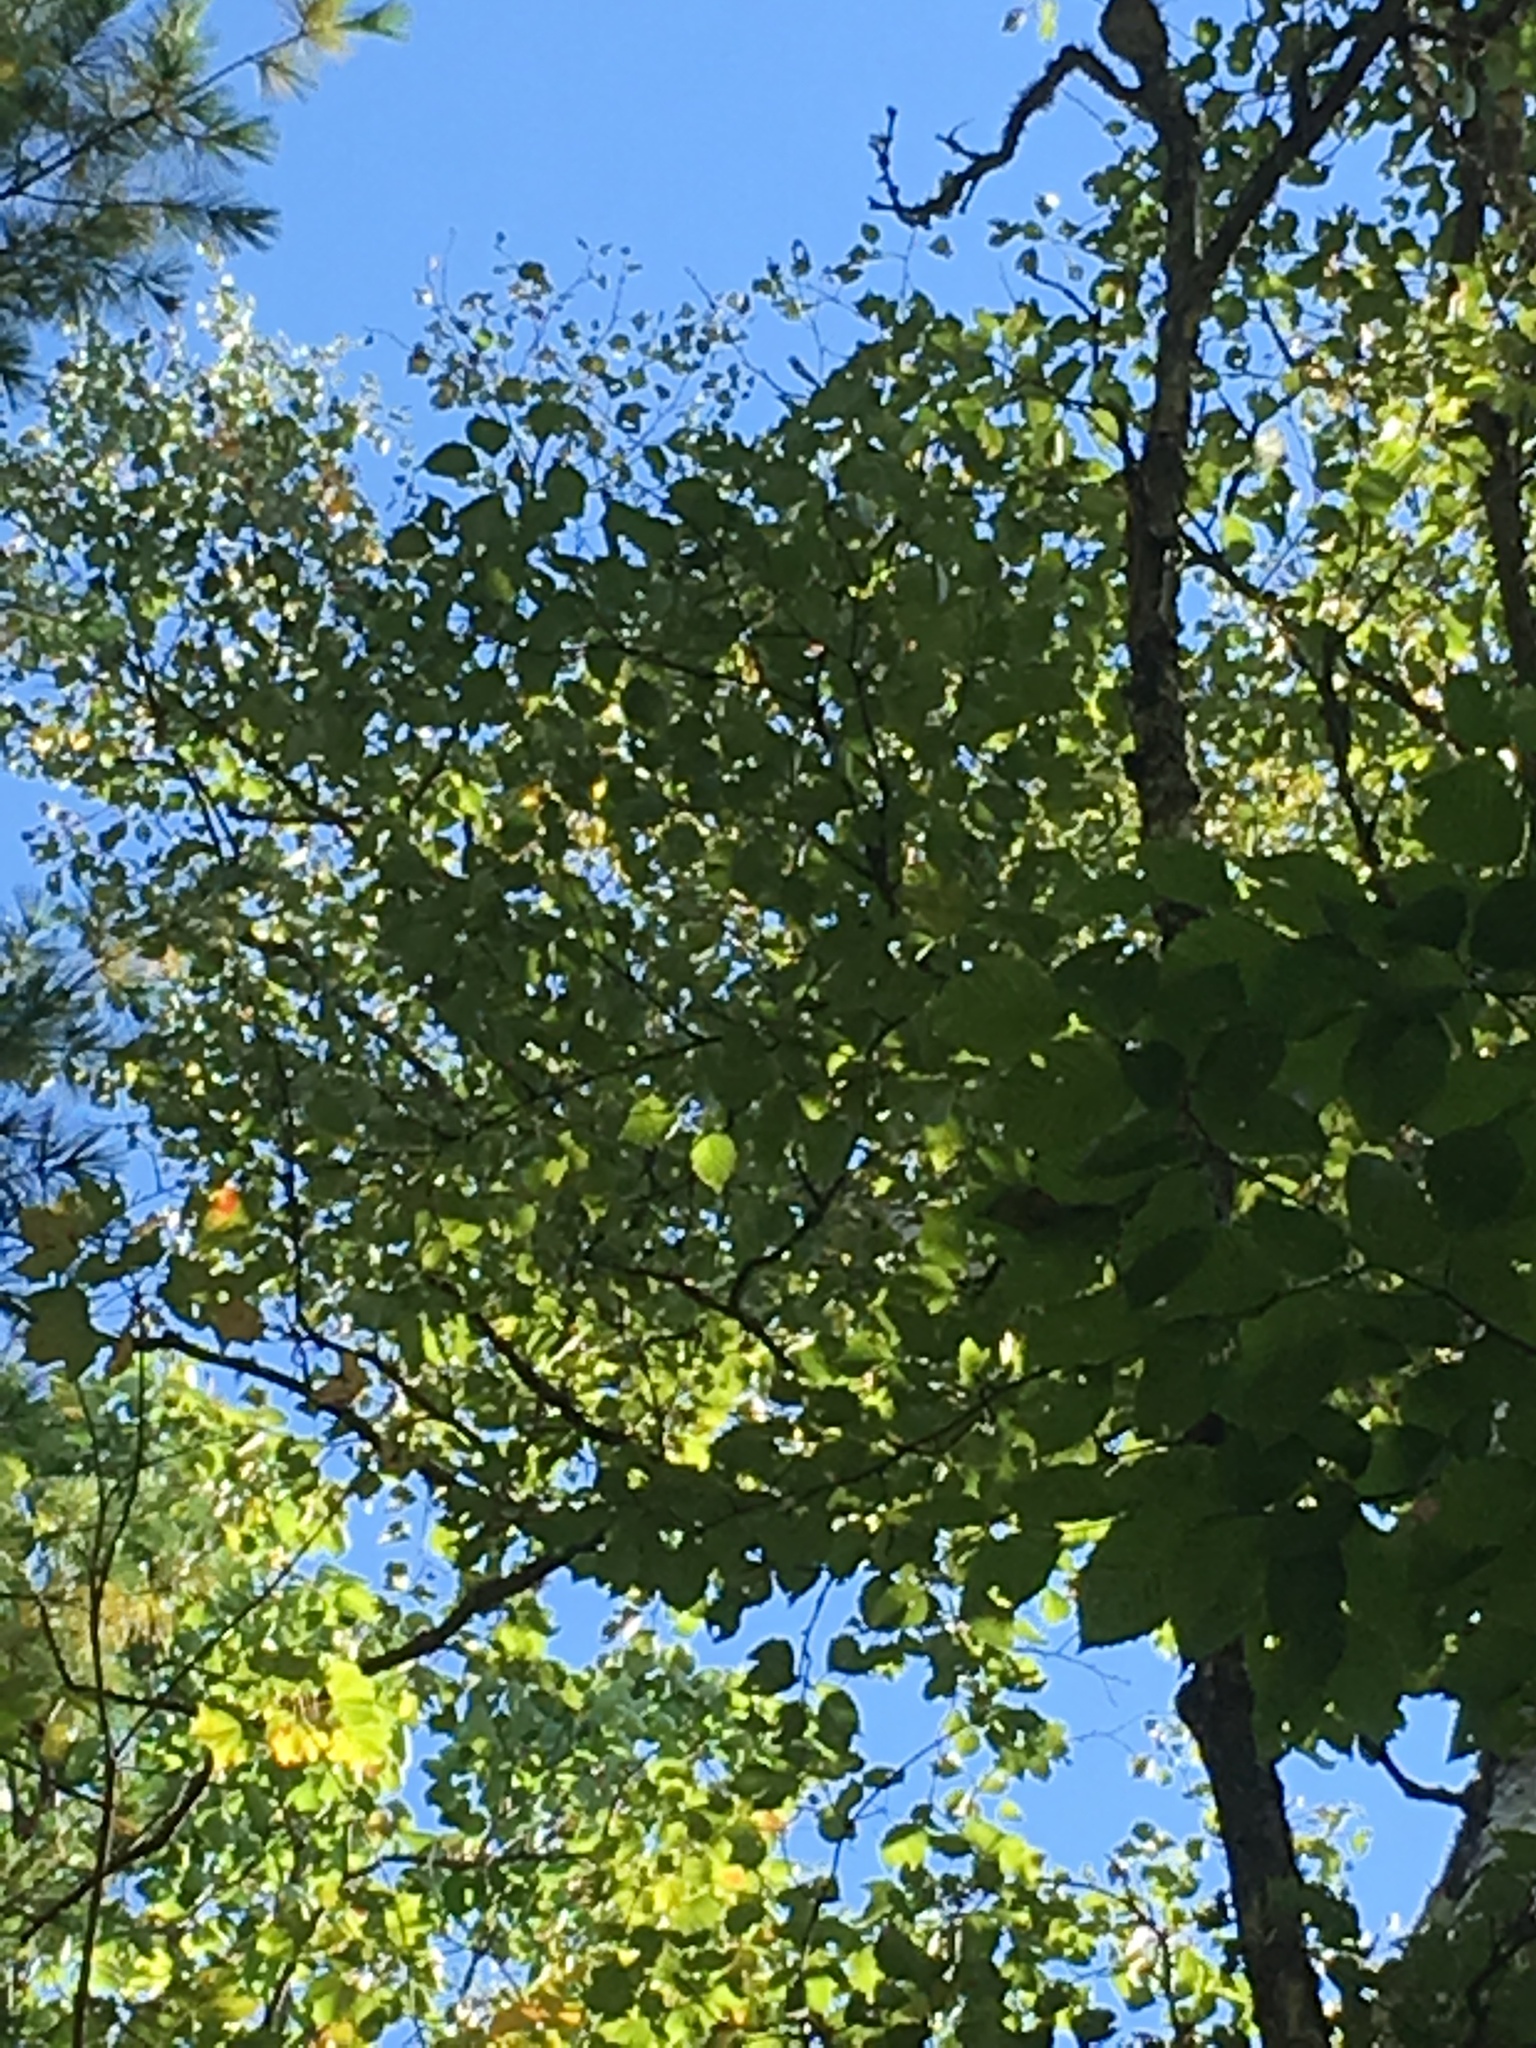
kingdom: Plantae
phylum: Tracheophyta
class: Magnoliopsida
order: Fagales
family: Betulaceae
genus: Betula
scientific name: Betula papyrifera
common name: Paper birch
